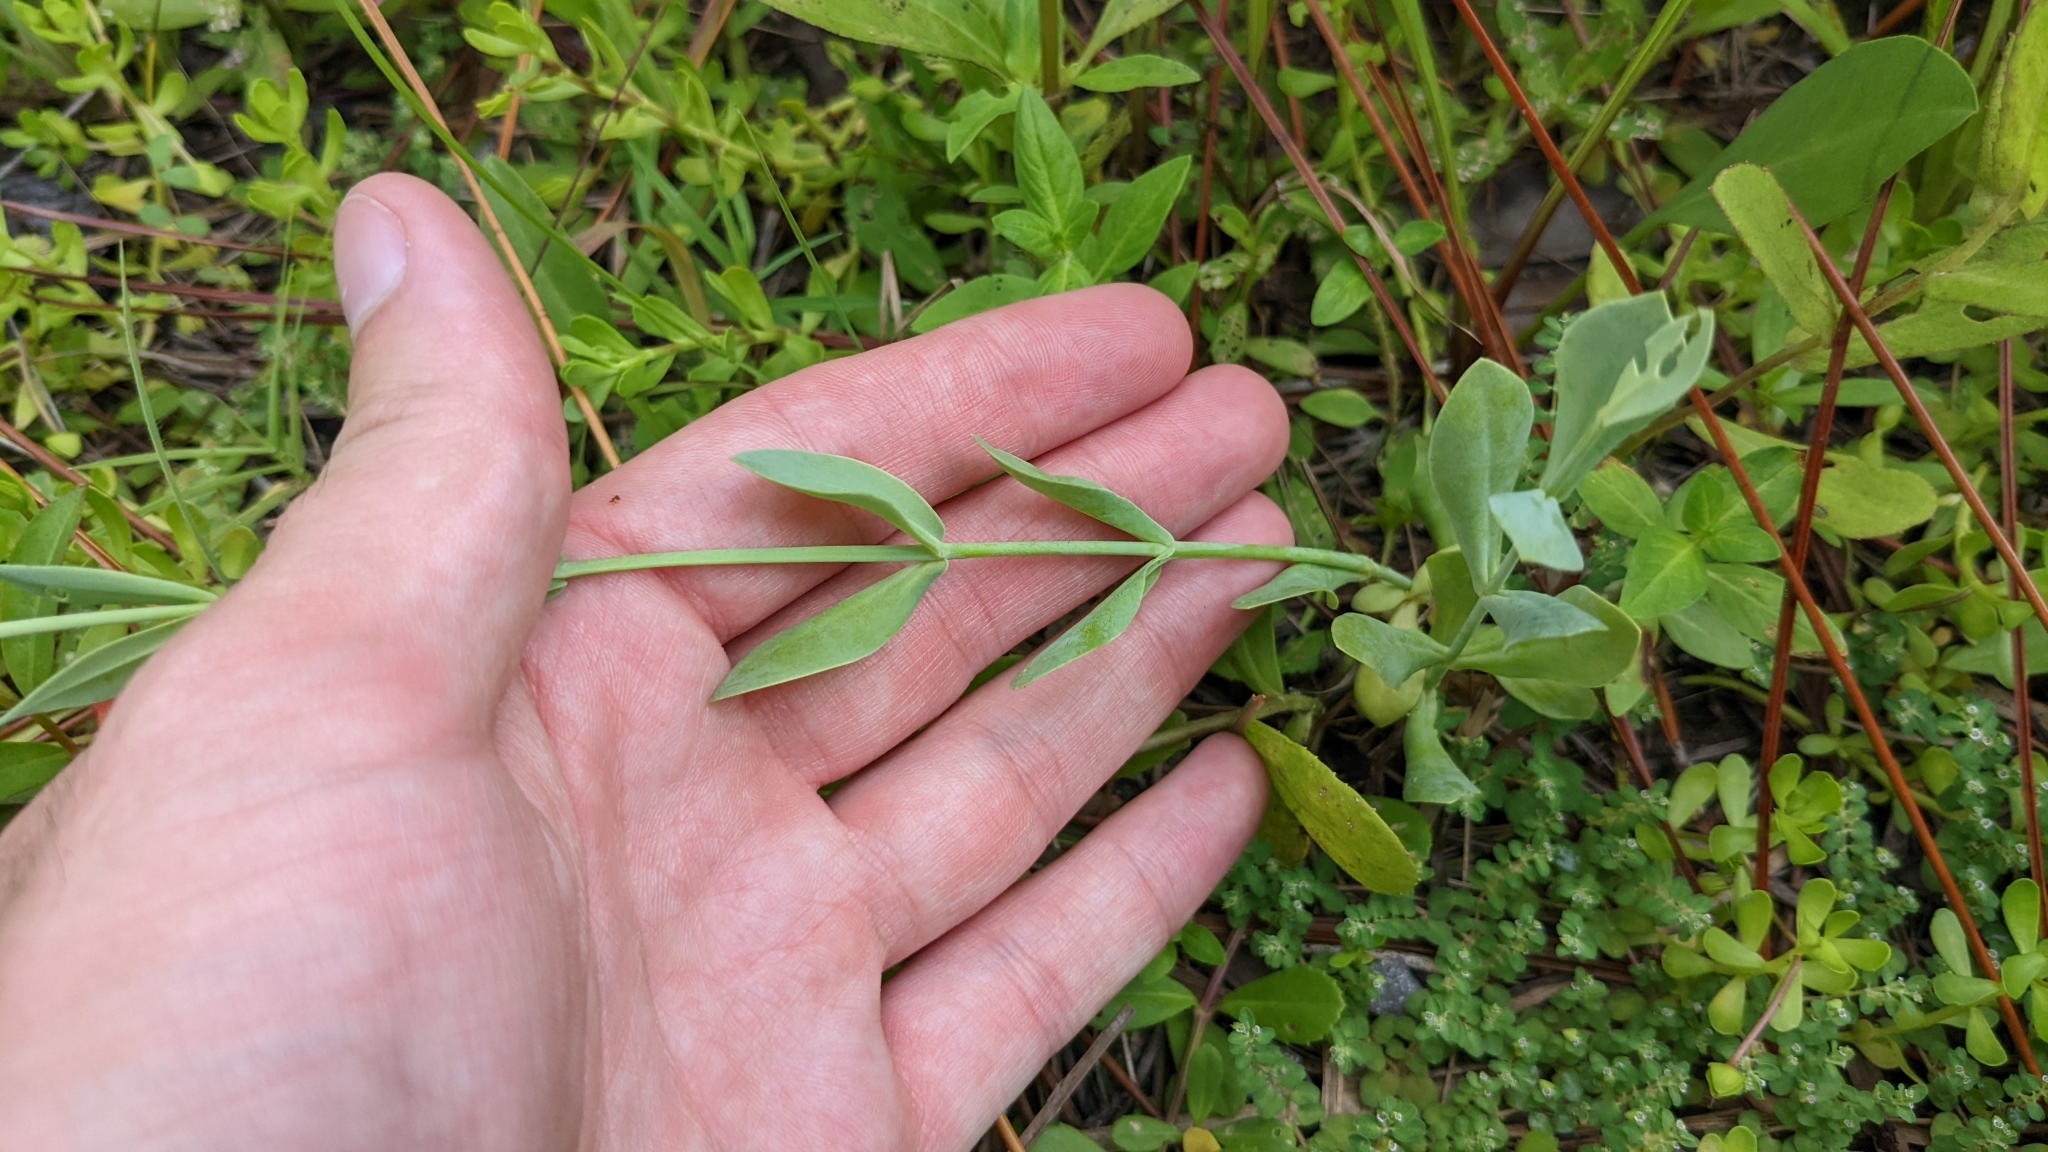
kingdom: Plantae
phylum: Tracheophyta
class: Magnoliopsida
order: Gentianales
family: Gentianaceae
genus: Eustoma
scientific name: Eustoma exaltatum
